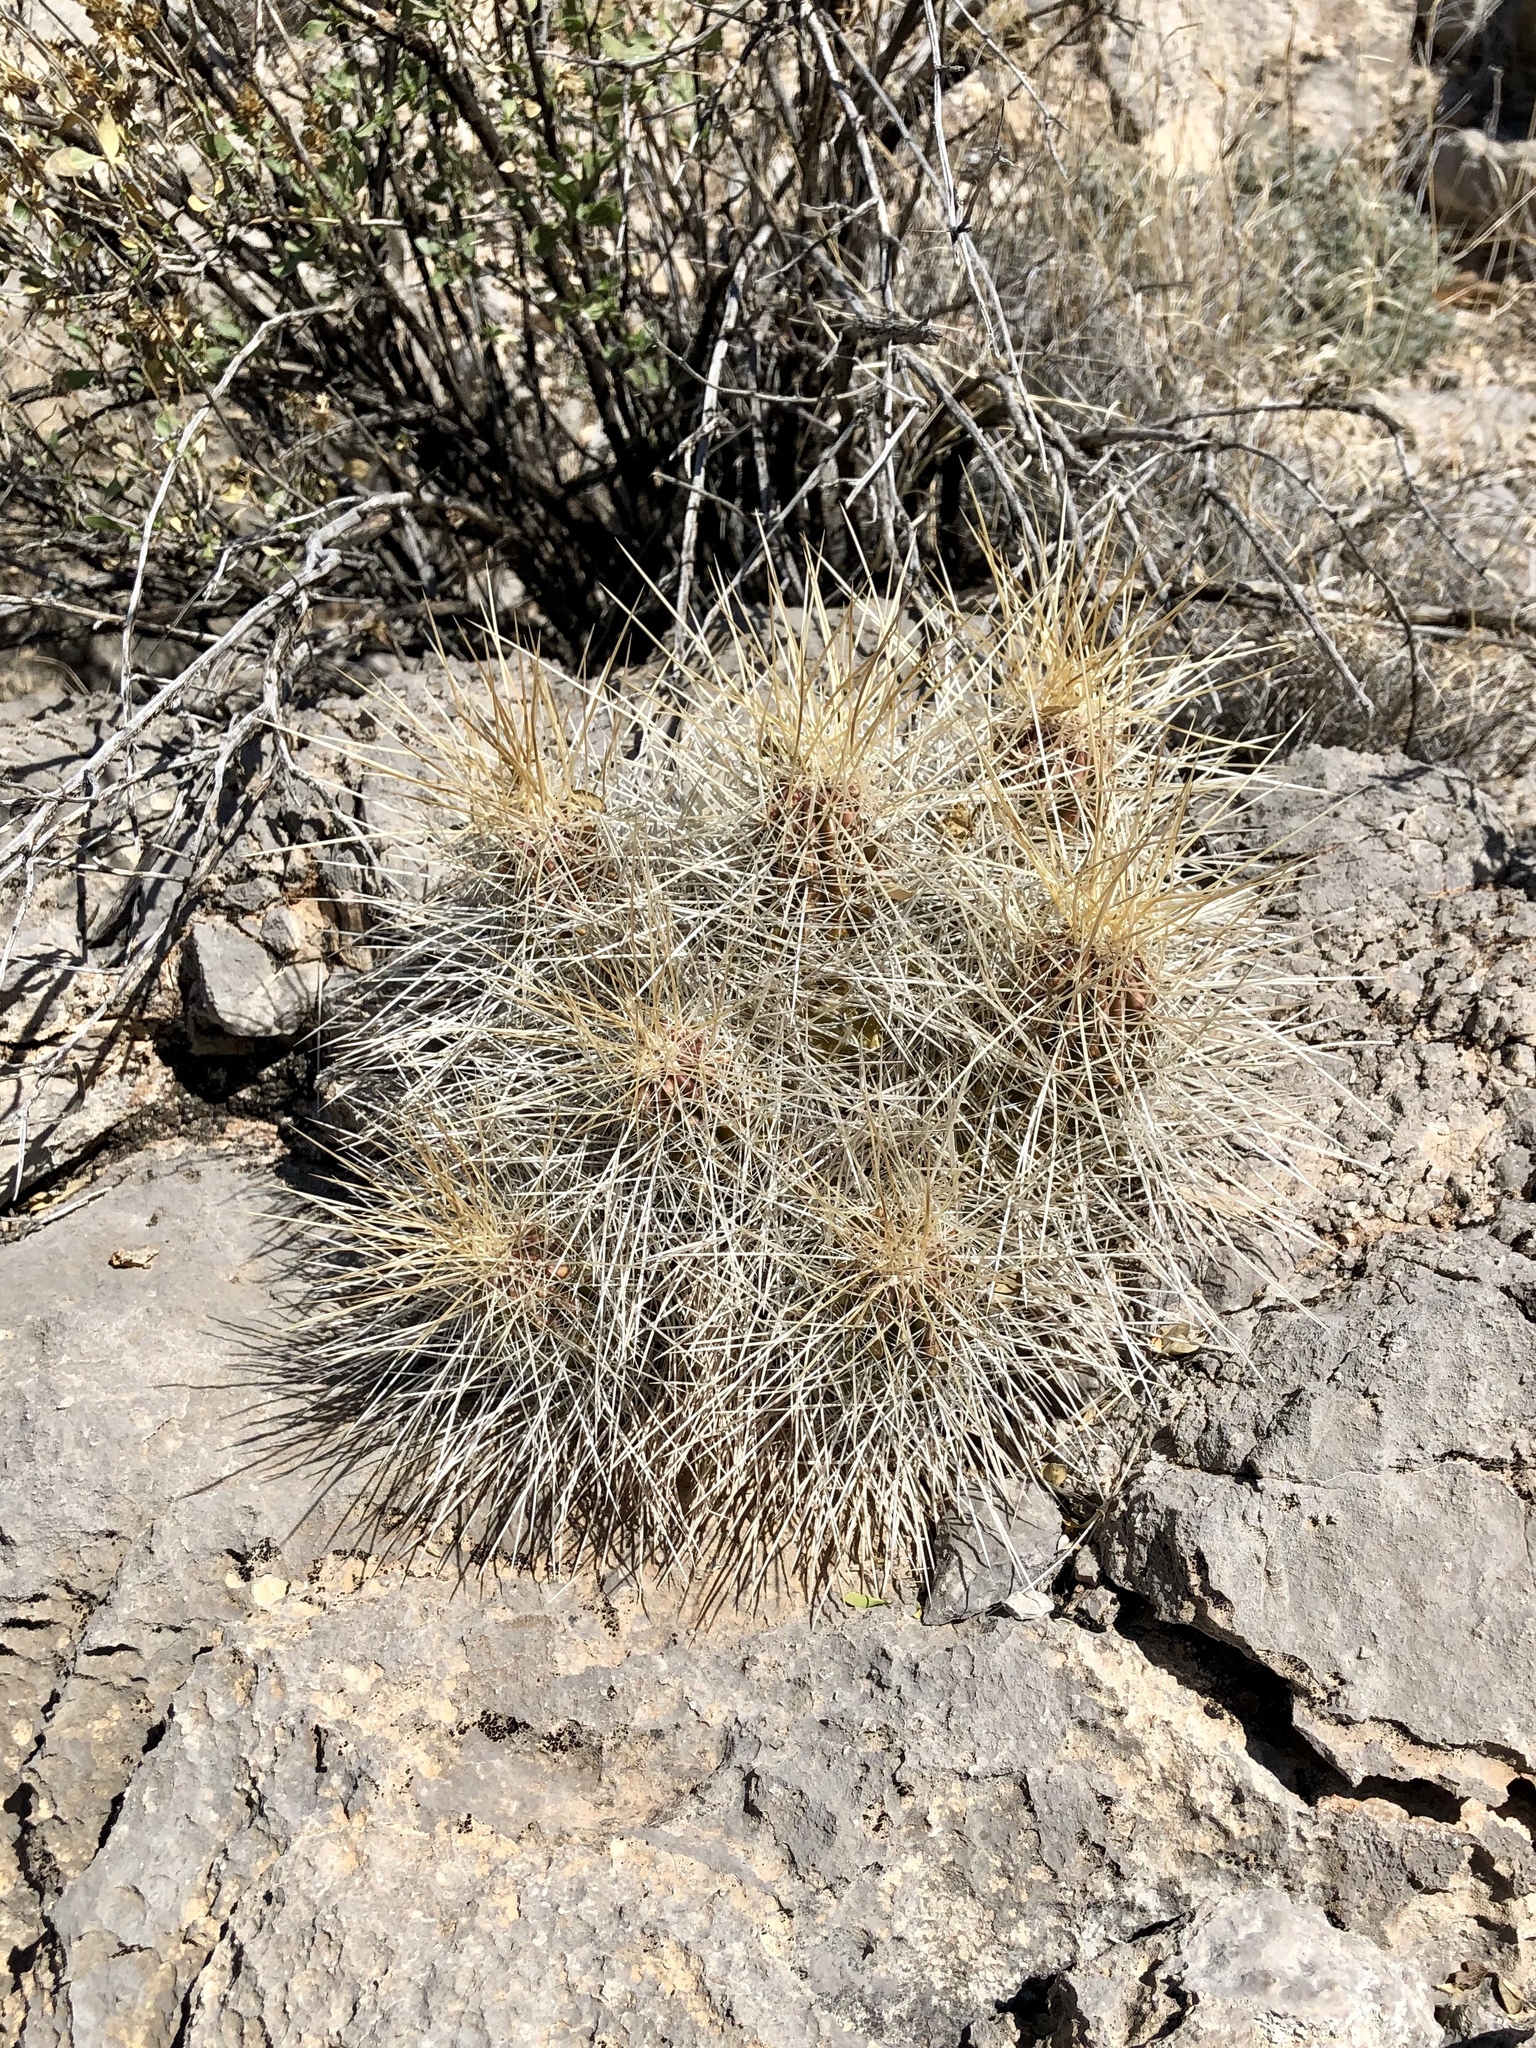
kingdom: Plantae
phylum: Tracheophyta
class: Magnoliopsida
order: Caryophyllales
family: Cactaceae
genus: Echinocereus
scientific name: Echinocereus stramineus
